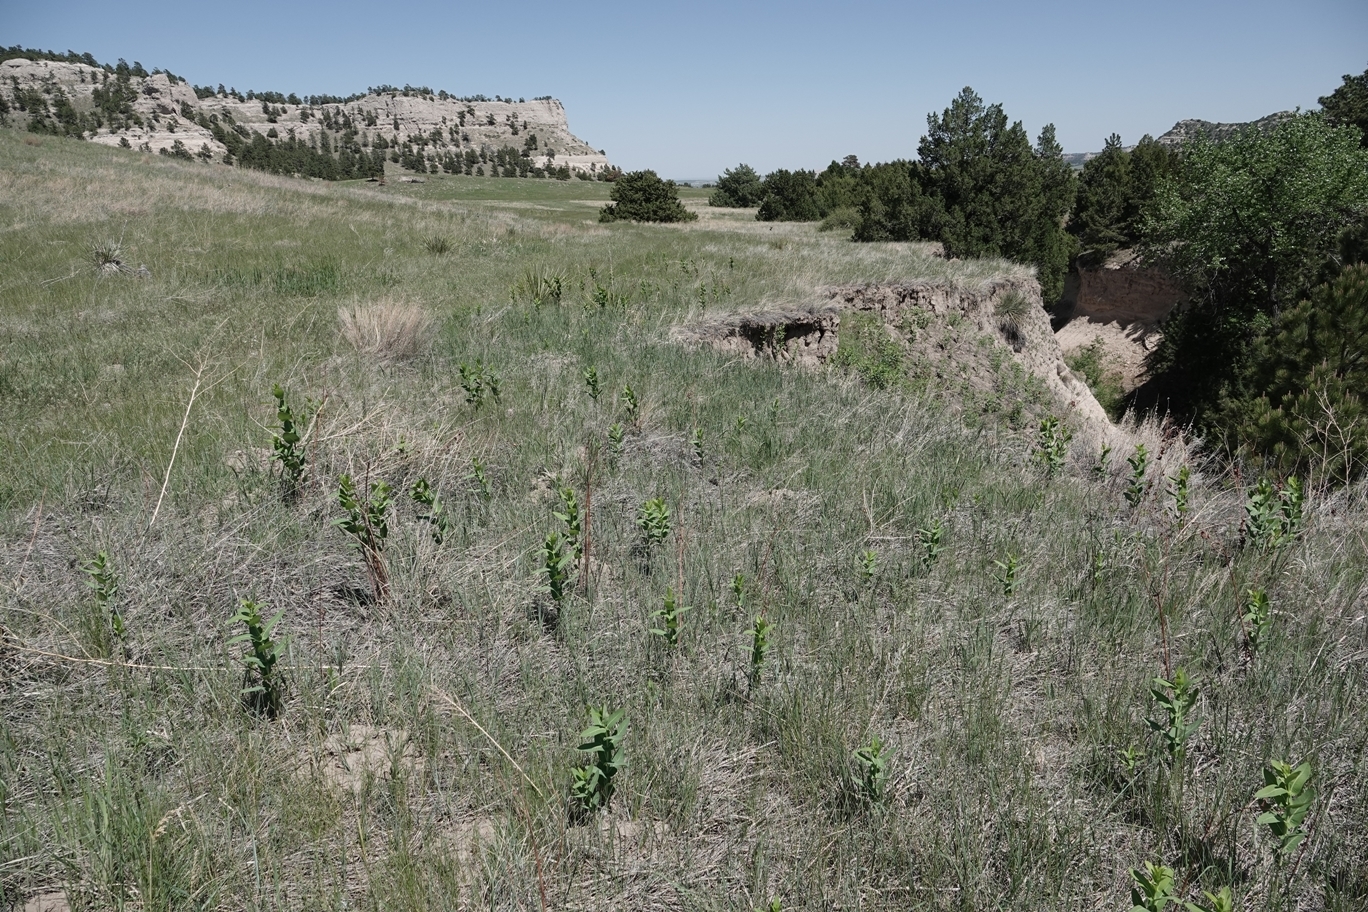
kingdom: Plantae
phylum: Tracheophyta
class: Magnoliopsida
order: Gentianales
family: Apocynaceae
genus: Apocynum
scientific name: Apocynum cannabinum
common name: Hemp dogbane
